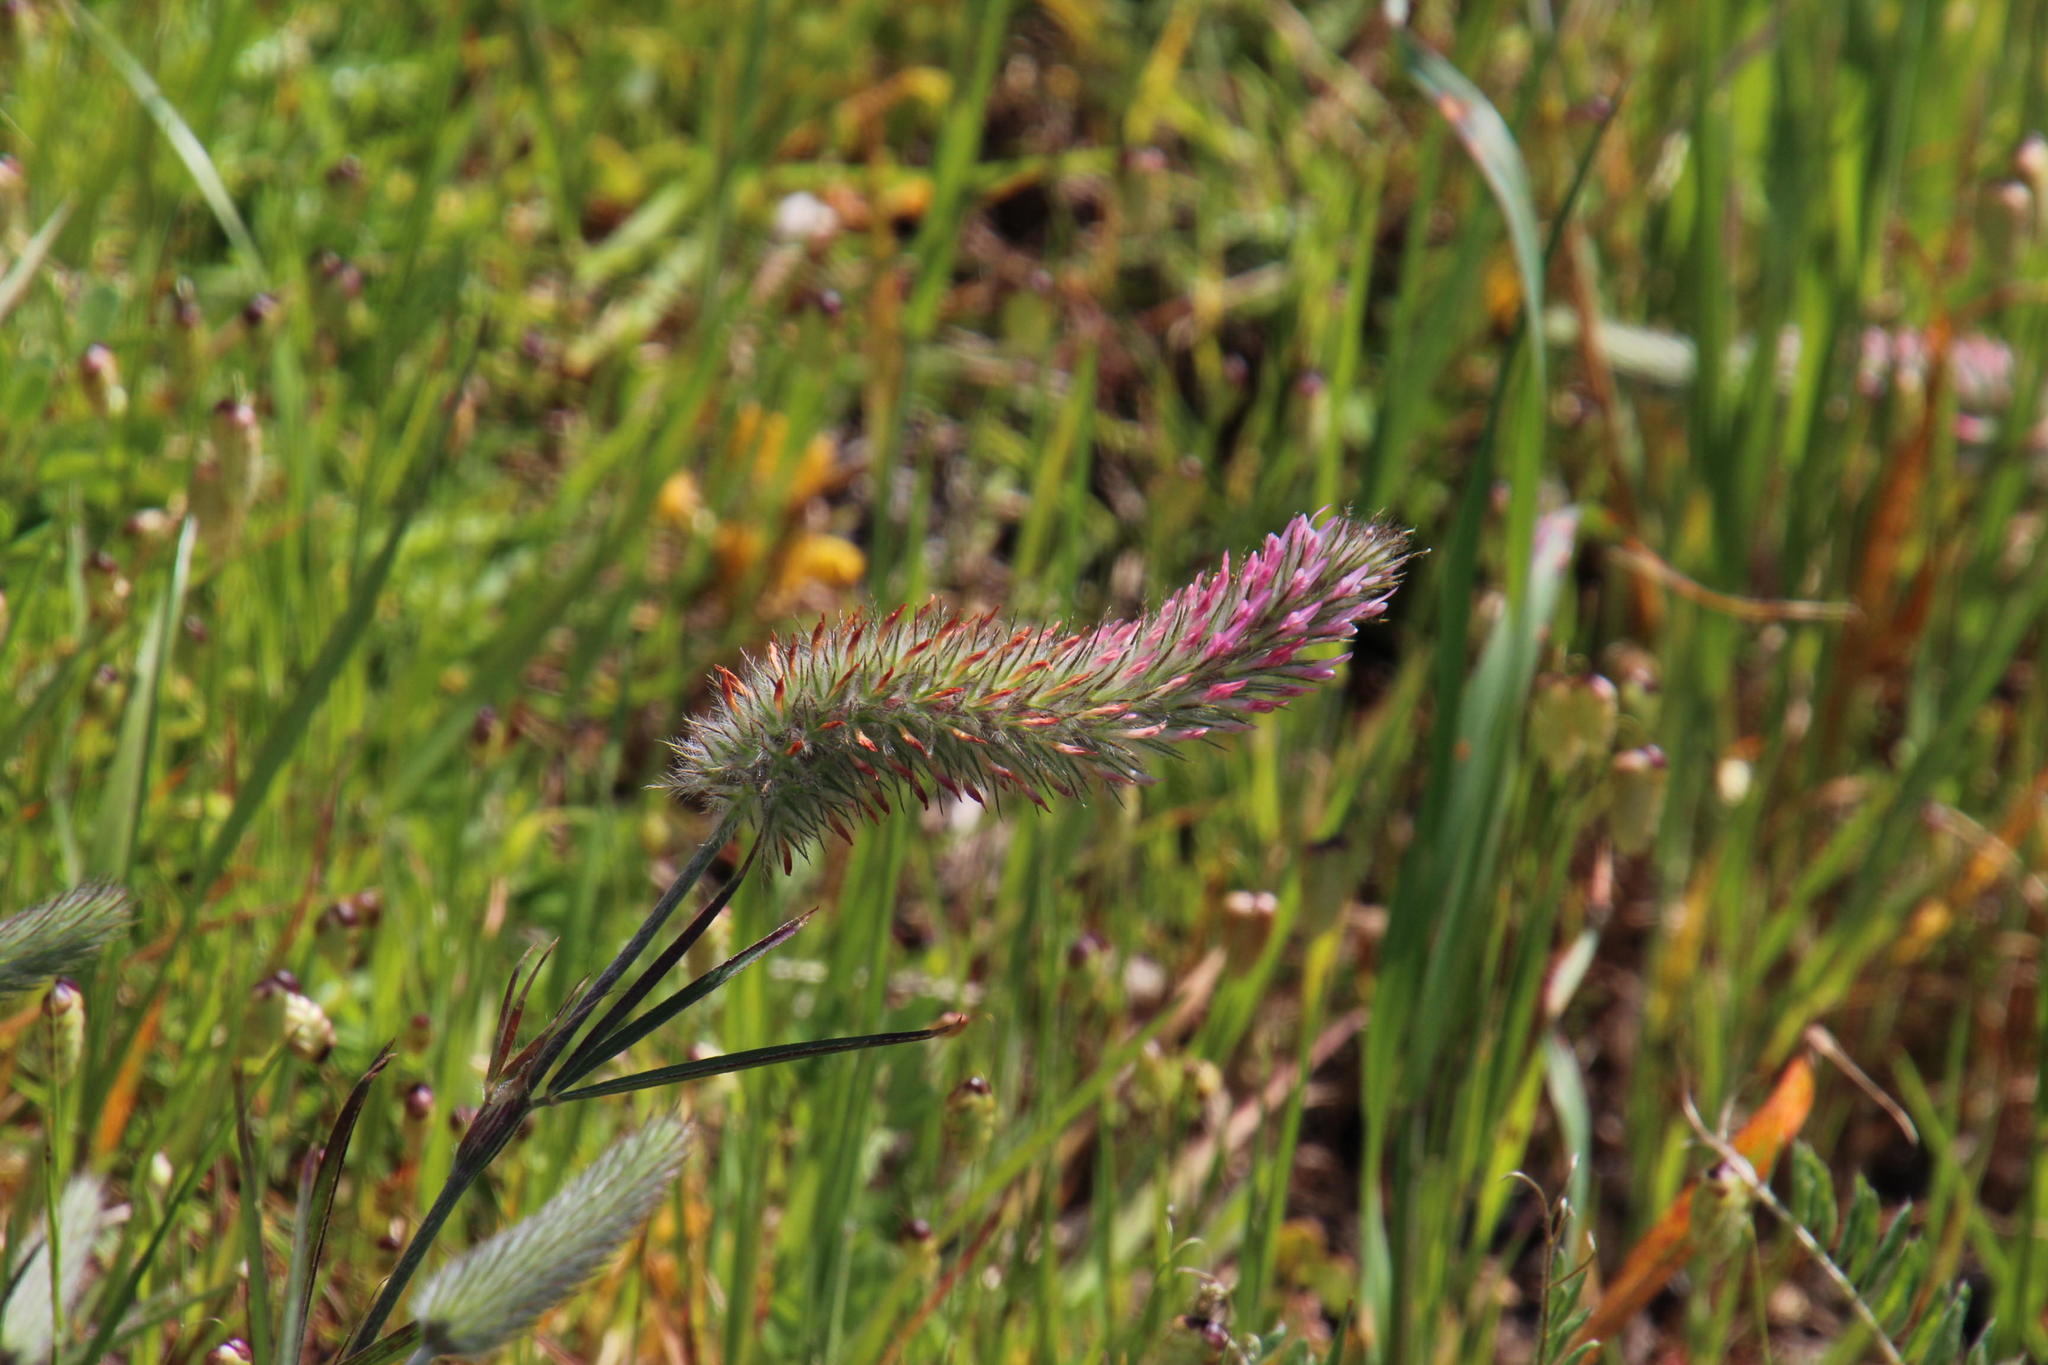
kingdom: Plantae
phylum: Tracheophyta
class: Magnoliopsida
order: Fabales
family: Fabaceae
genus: Trifolium
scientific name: Trifolium angustifolium
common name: Narrow clover
